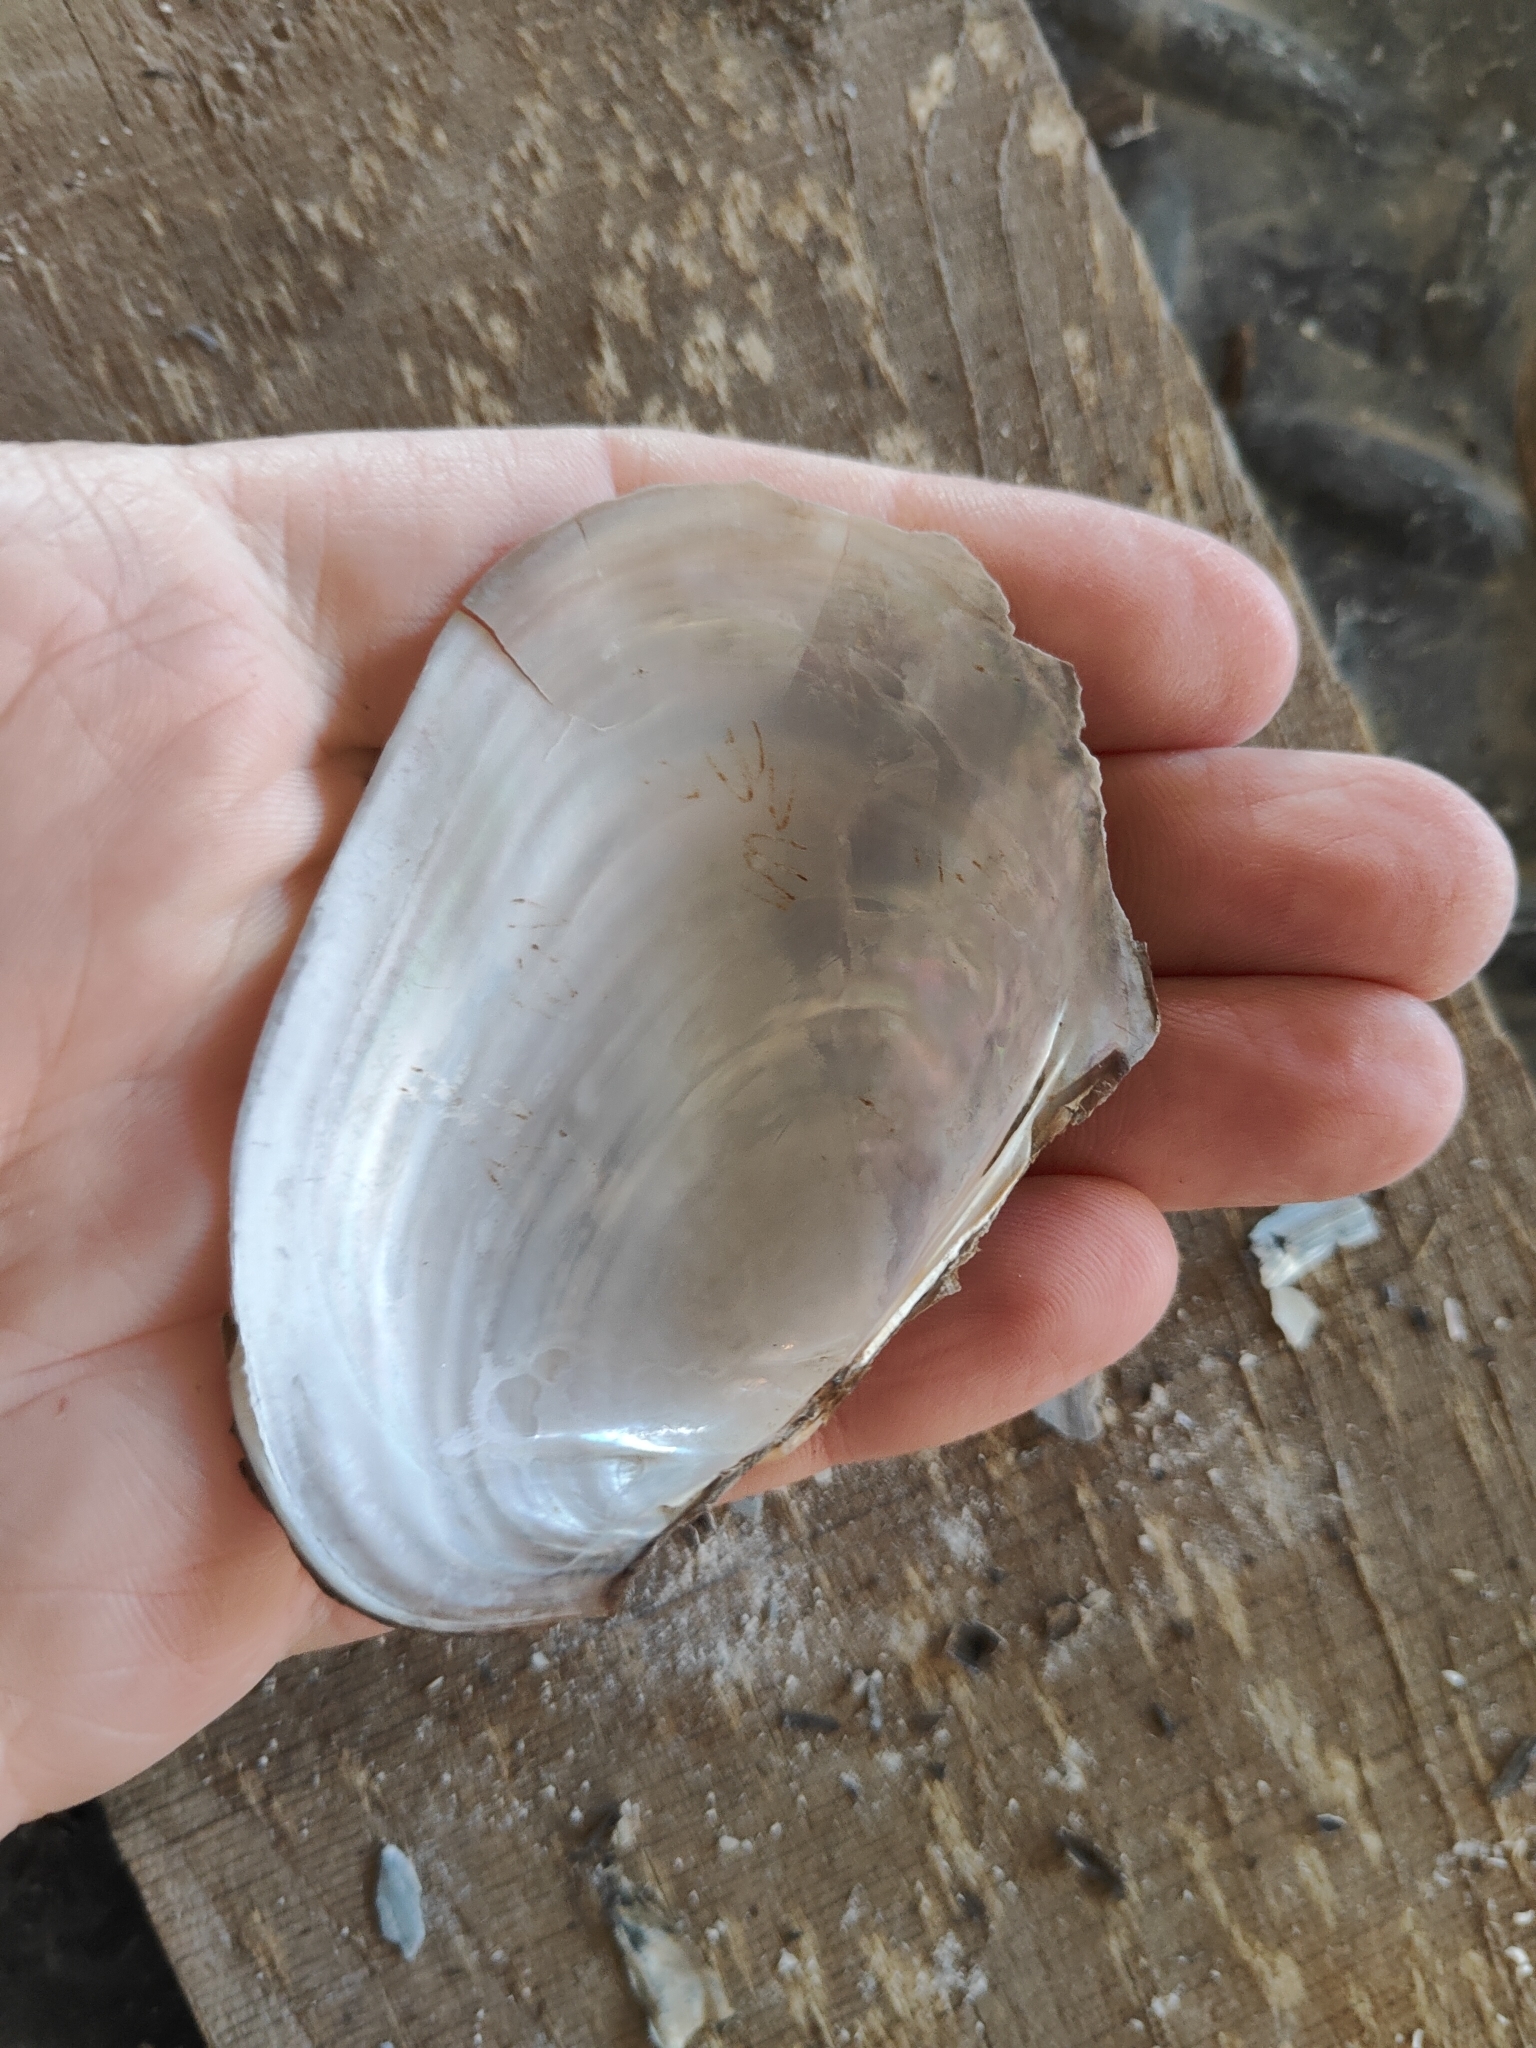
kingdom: Animalia
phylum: Mollusca
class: Bivalvia
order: Unionida
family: Unionidae
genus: Potamilus
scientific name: Potamilus fragilis
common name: Fragile papershell
